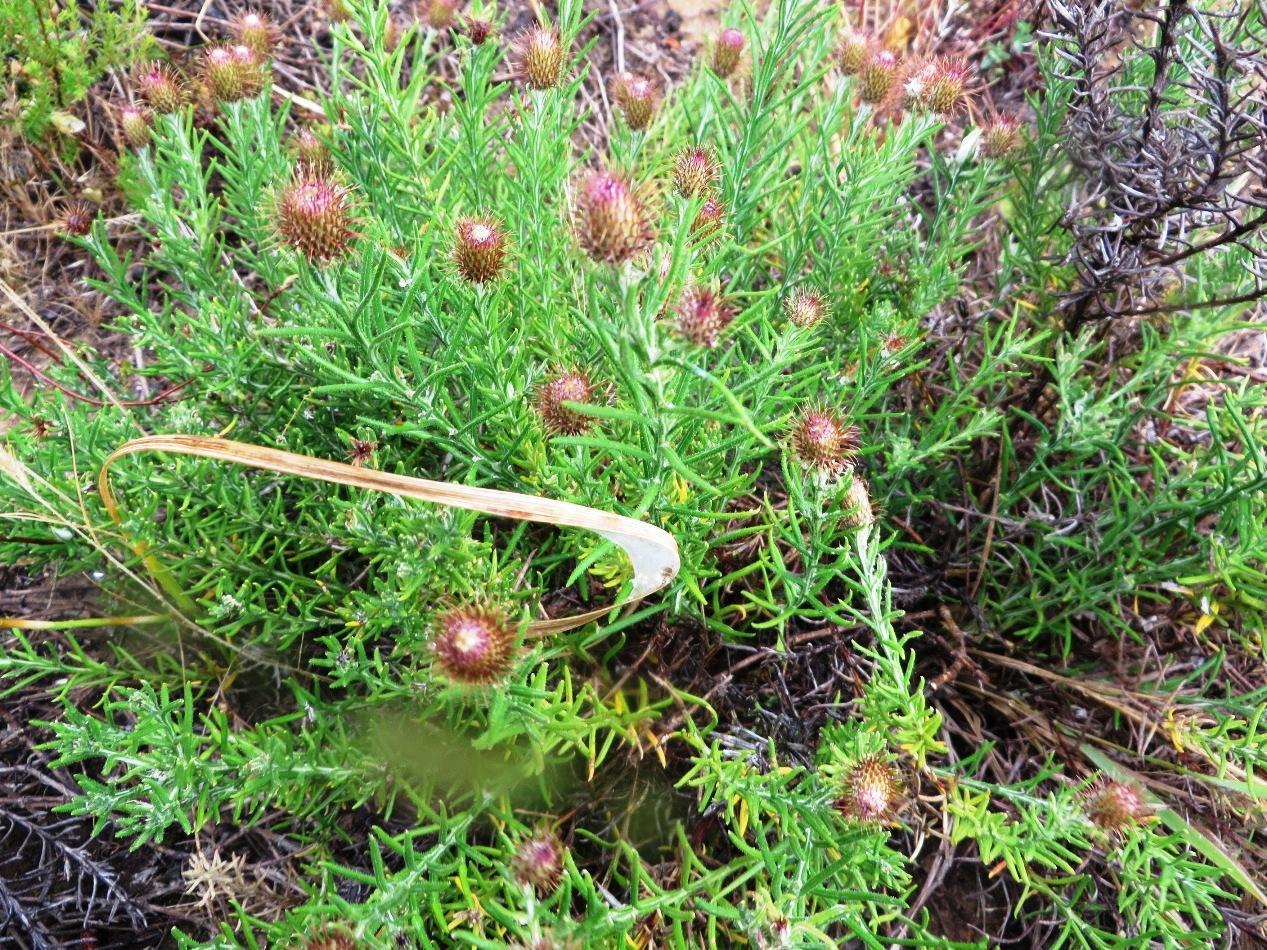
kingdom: Plantae
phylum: Tracheophyta
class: Magnoliopsida
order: Asterales
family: Asteraceae
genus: Athrixia
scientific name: Athrixia capensis
